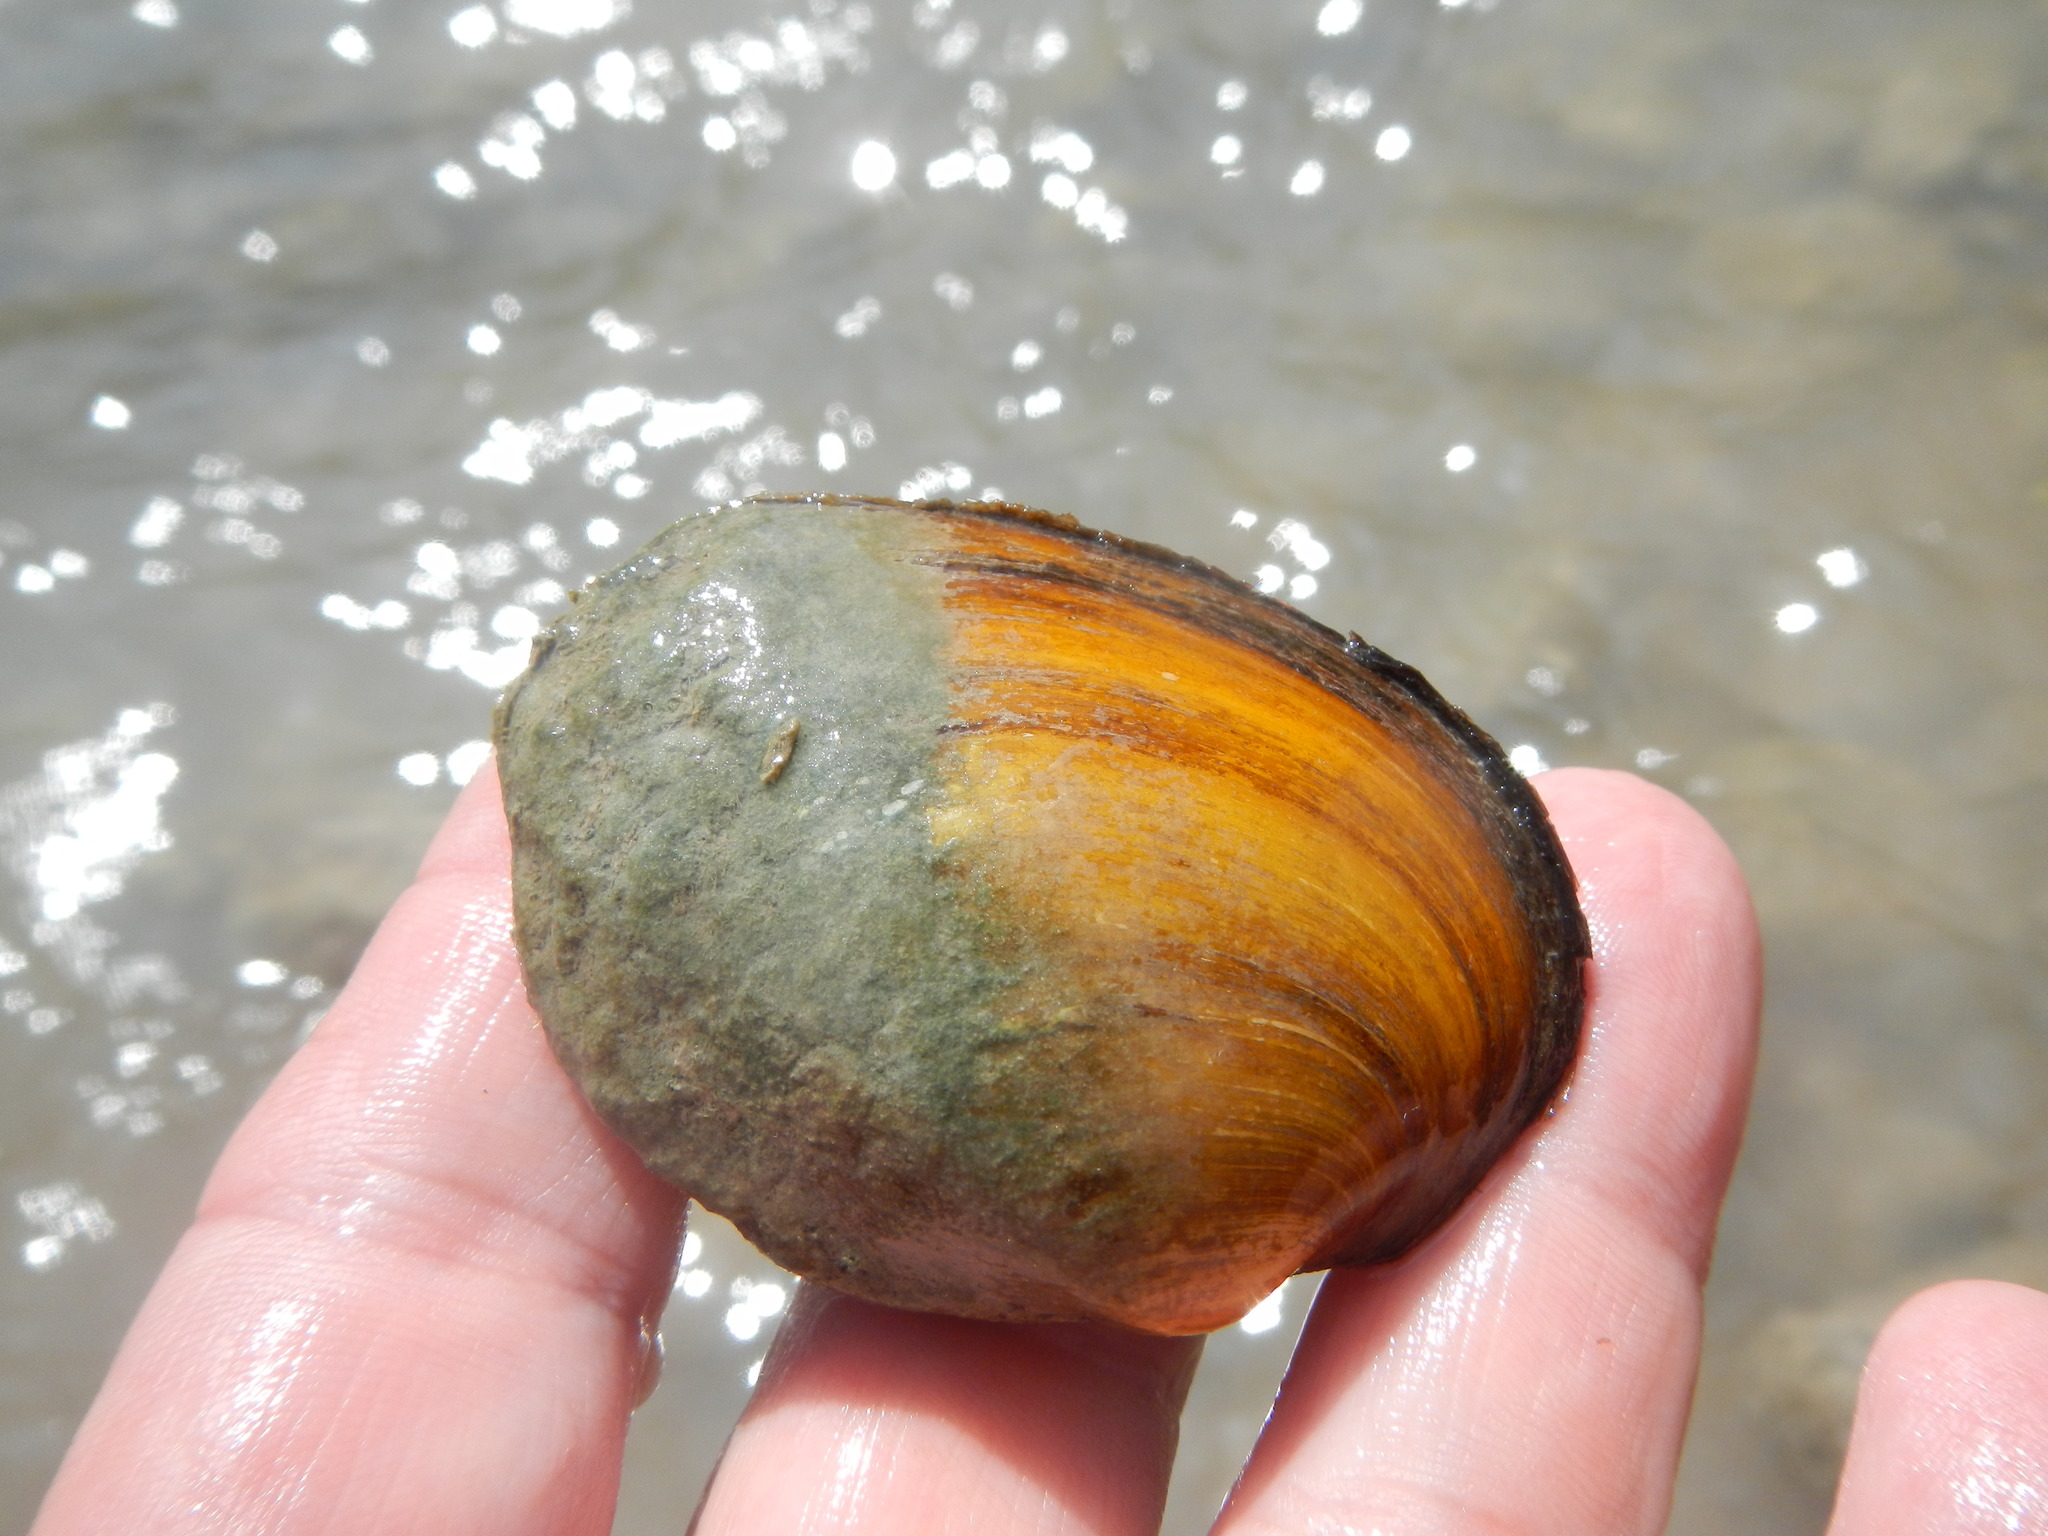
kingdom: Animalia
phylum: Mollusca
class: Bivalvia
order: Unionida
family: Unionidae
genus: Cyclonaias
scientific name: Cyclonaias pustulosa
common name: Pimpleback
